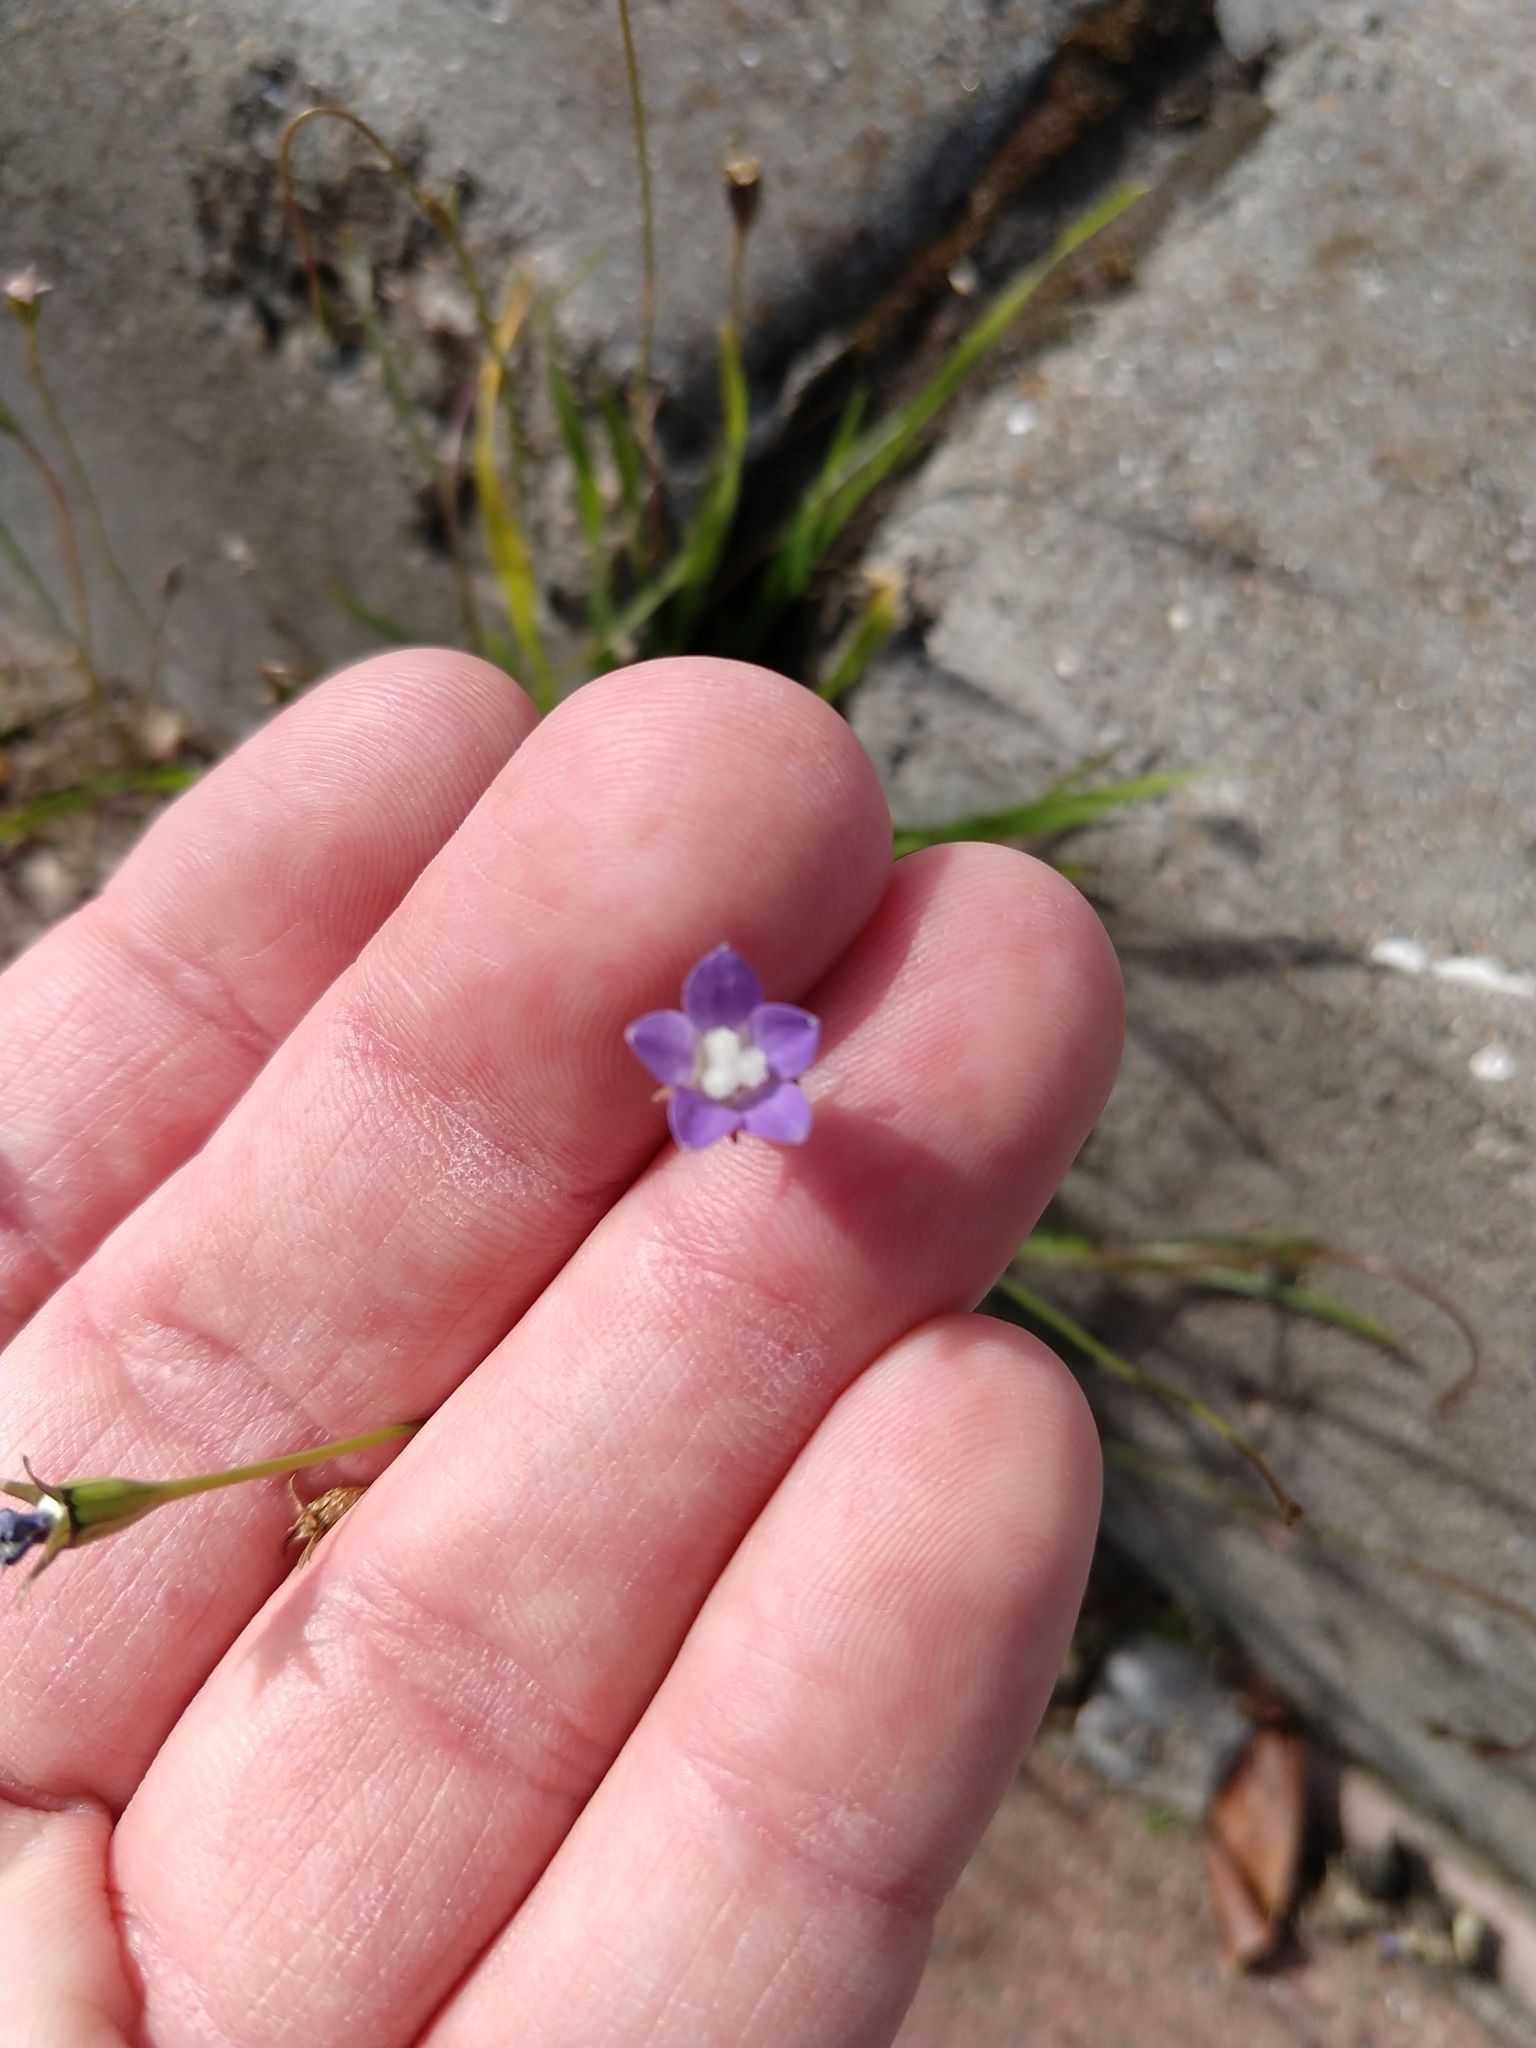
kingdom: Plantae
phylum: Tracheophyta
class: Magnoliopsida
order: Asterales
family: Campanulaceae
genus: Wahlenbergia
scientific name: Wahlenbergia marginata
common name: Southern rockbell
